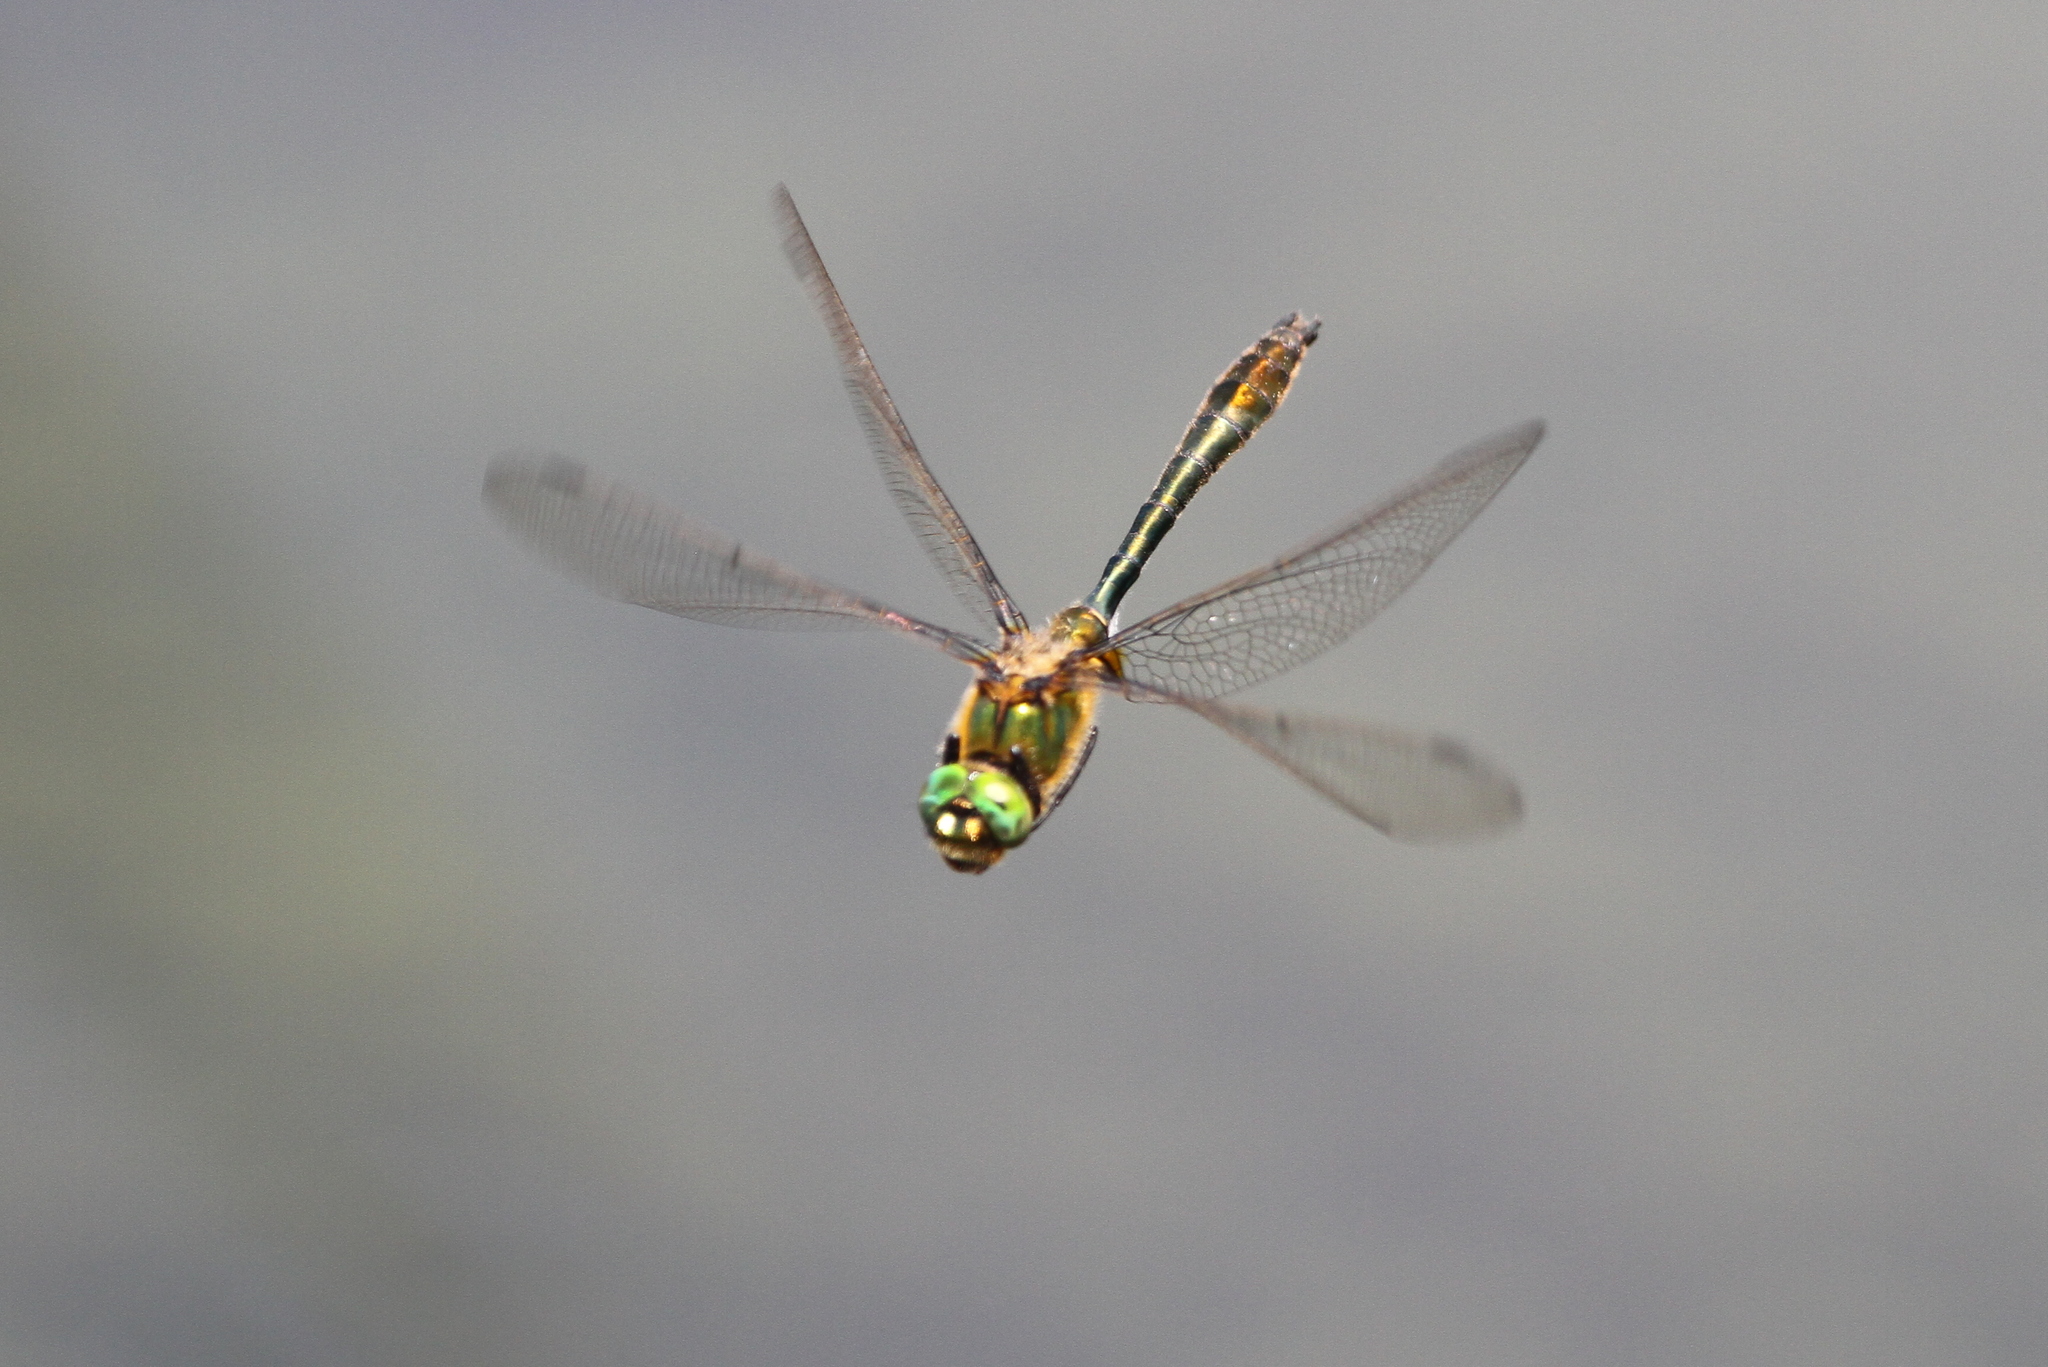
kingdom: Animalia
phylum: Arthropoda
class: Insecta
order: Odonata
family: Corduliidae
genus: Cordulia
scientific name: Cordulia aenea
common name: Downy emerald
